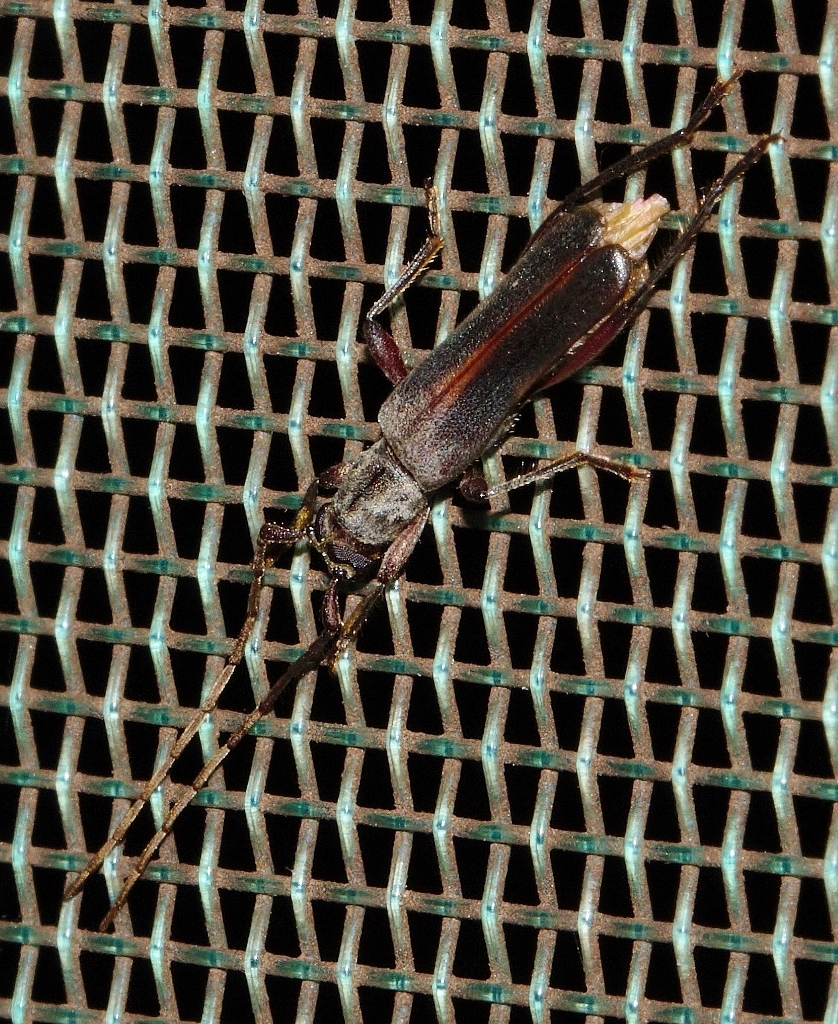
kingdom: Animalia
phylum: Arthropoda
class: Insecta
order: Coleoptera
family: Cerambycidae
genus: Ossibia
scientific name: Ossibia murina
